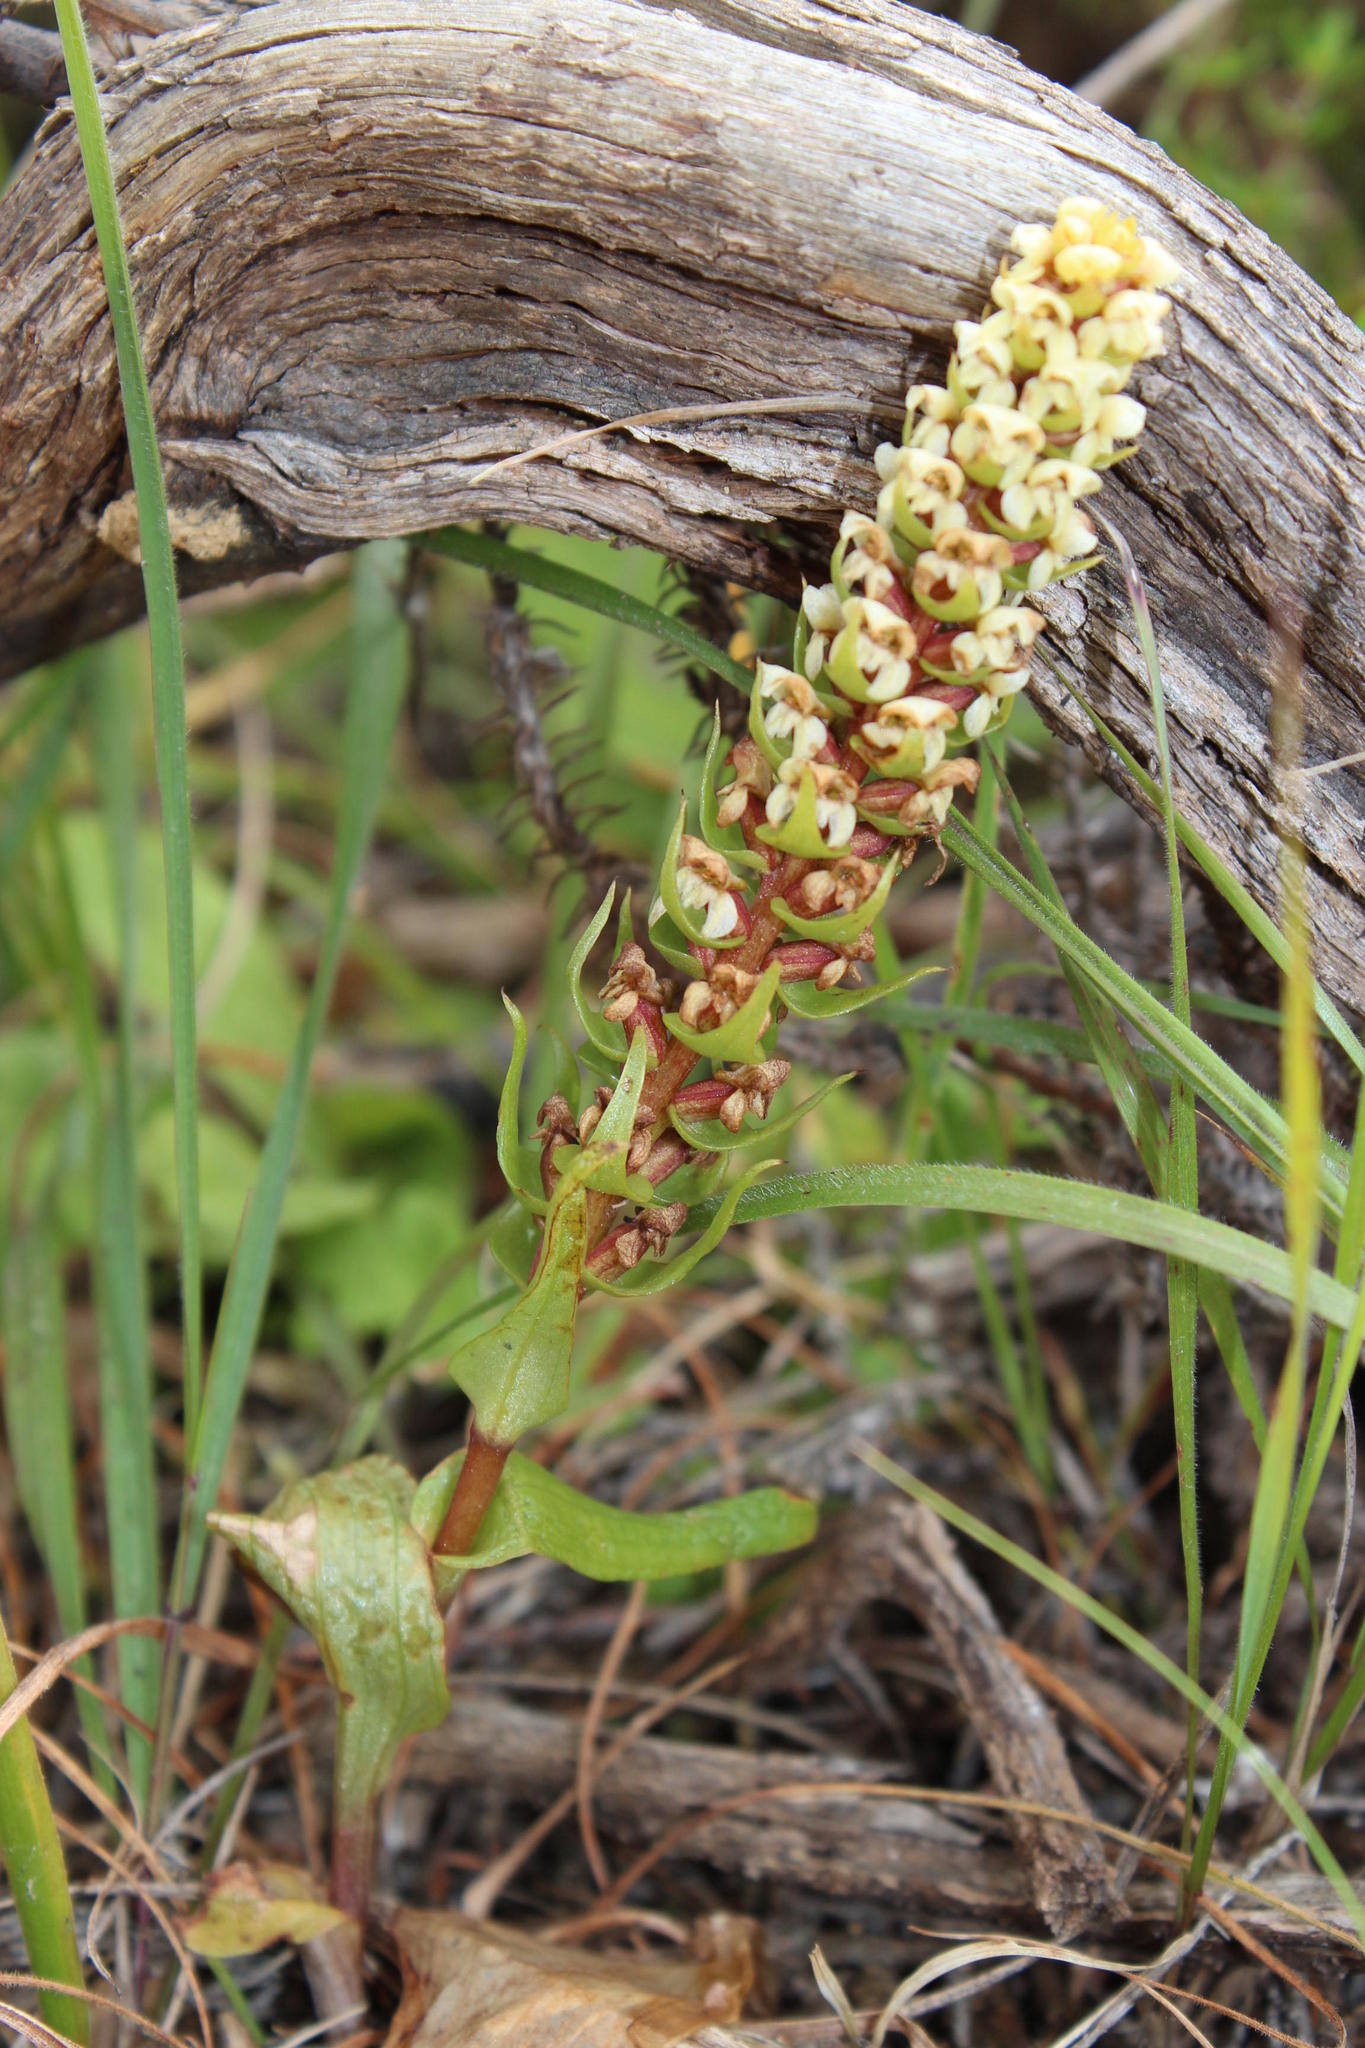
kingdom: Plantae
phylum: Tracheophyta
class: Liliopsida
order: Asparagales
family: Orchidaceae
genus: Satyrium
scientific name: Satyrium bicallosum
